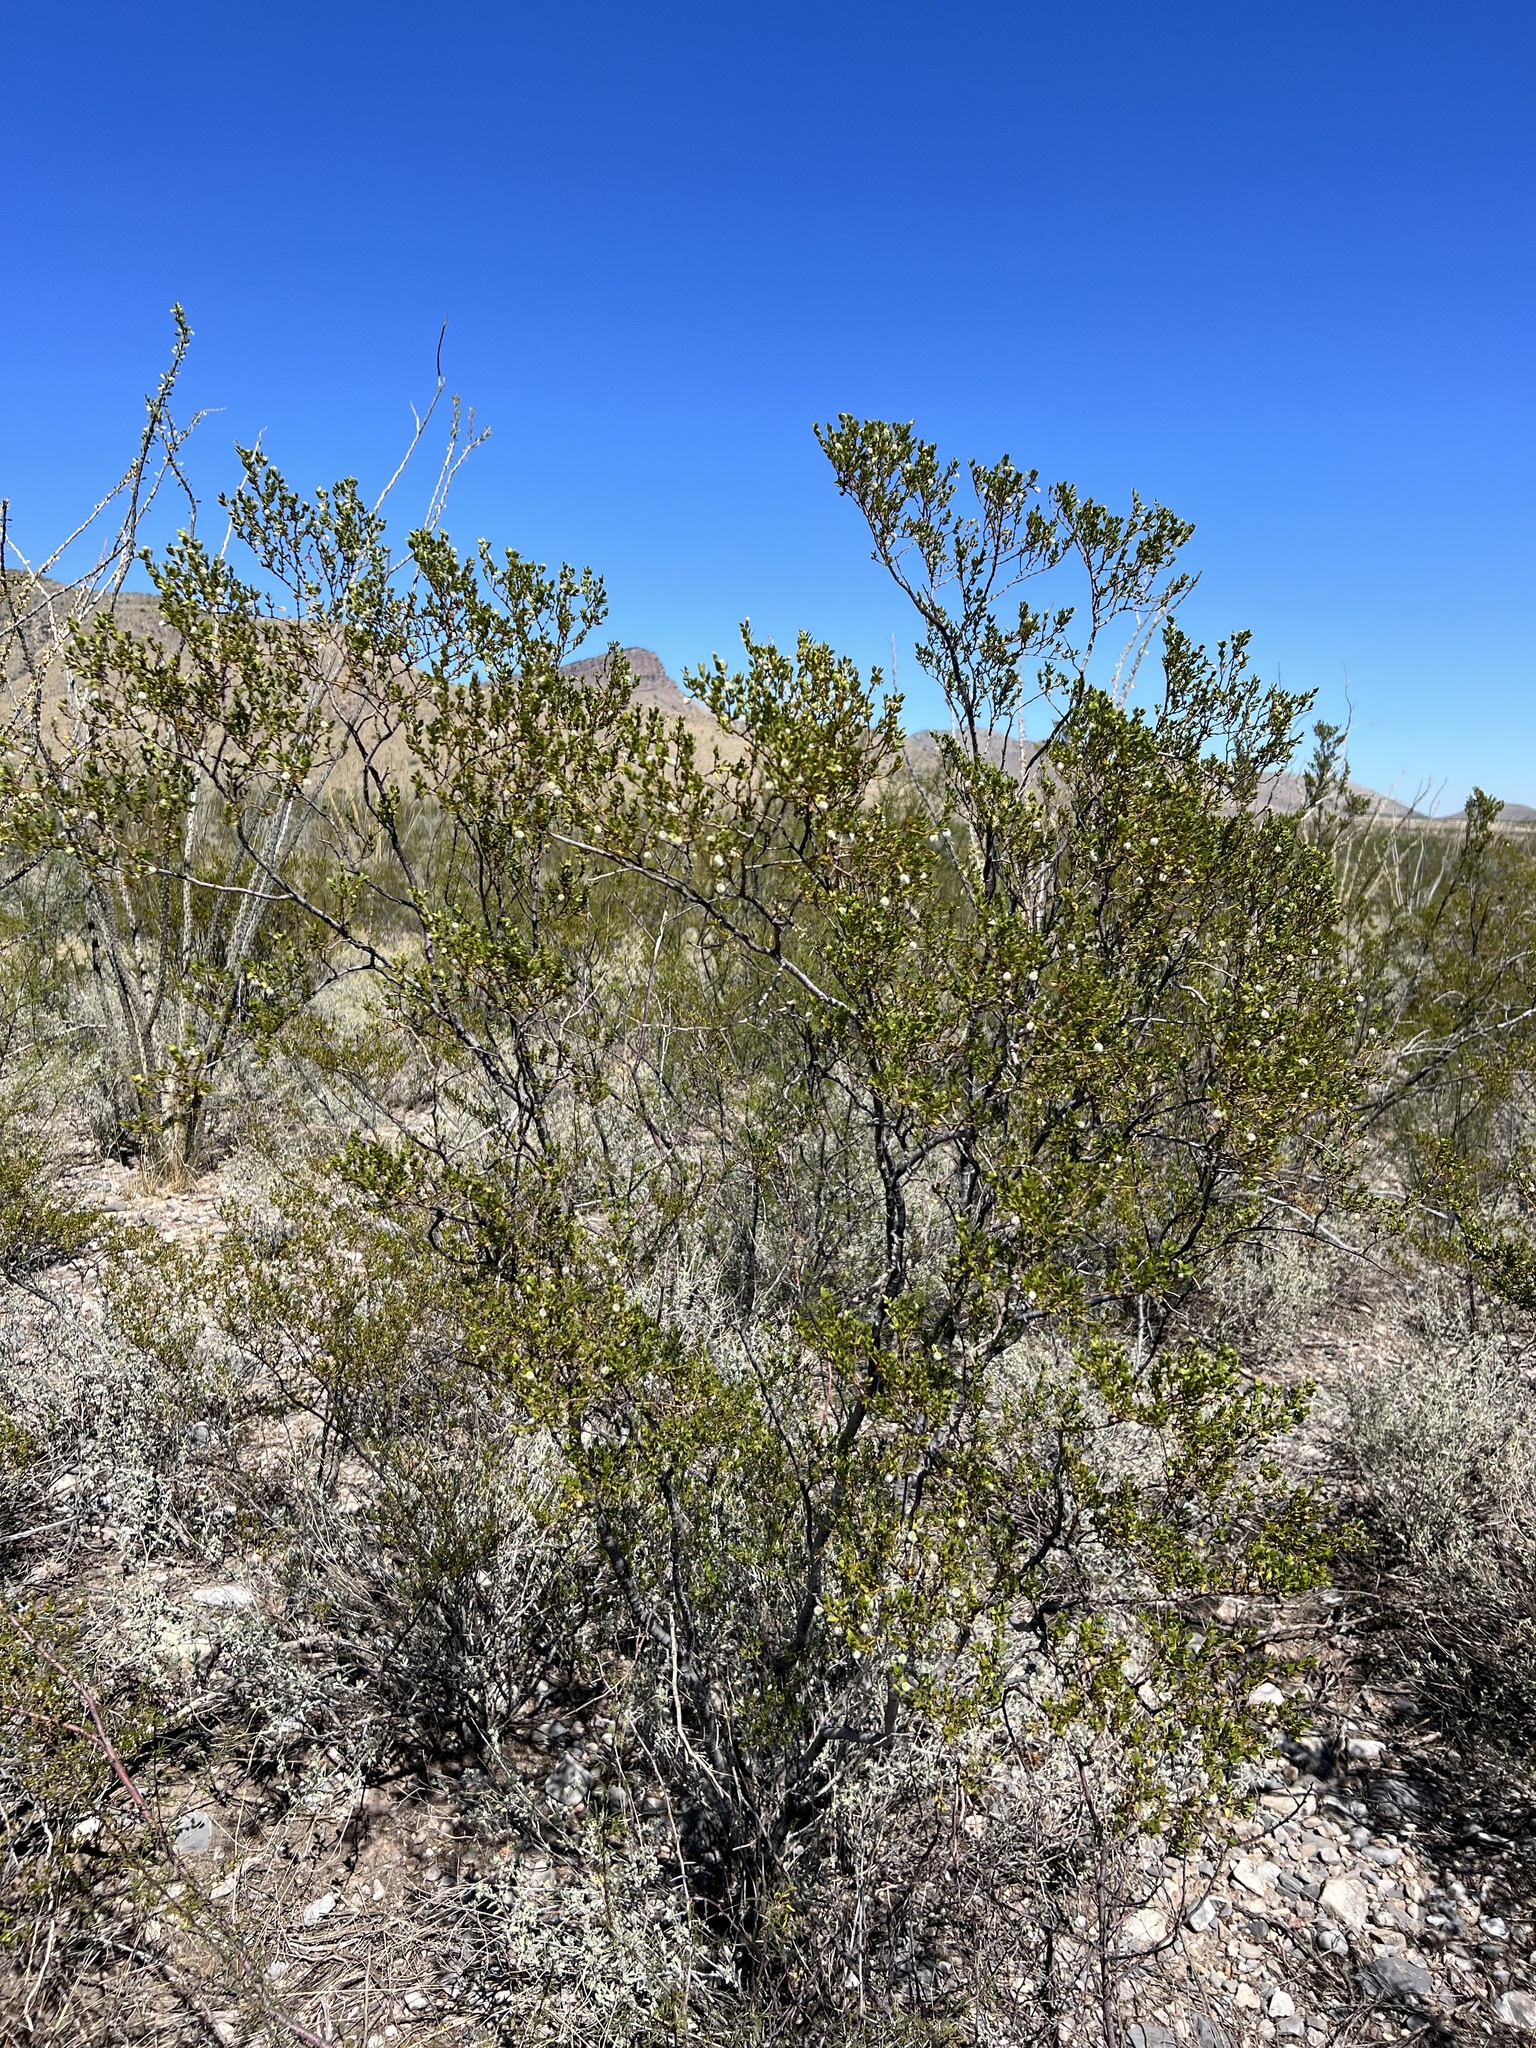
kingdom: Plantae
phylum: Tracheophyta
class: Magnoliopsida
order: Zygophyllales
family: Zygophyllaceae
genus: Larrea
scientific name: Larrea tridentata
